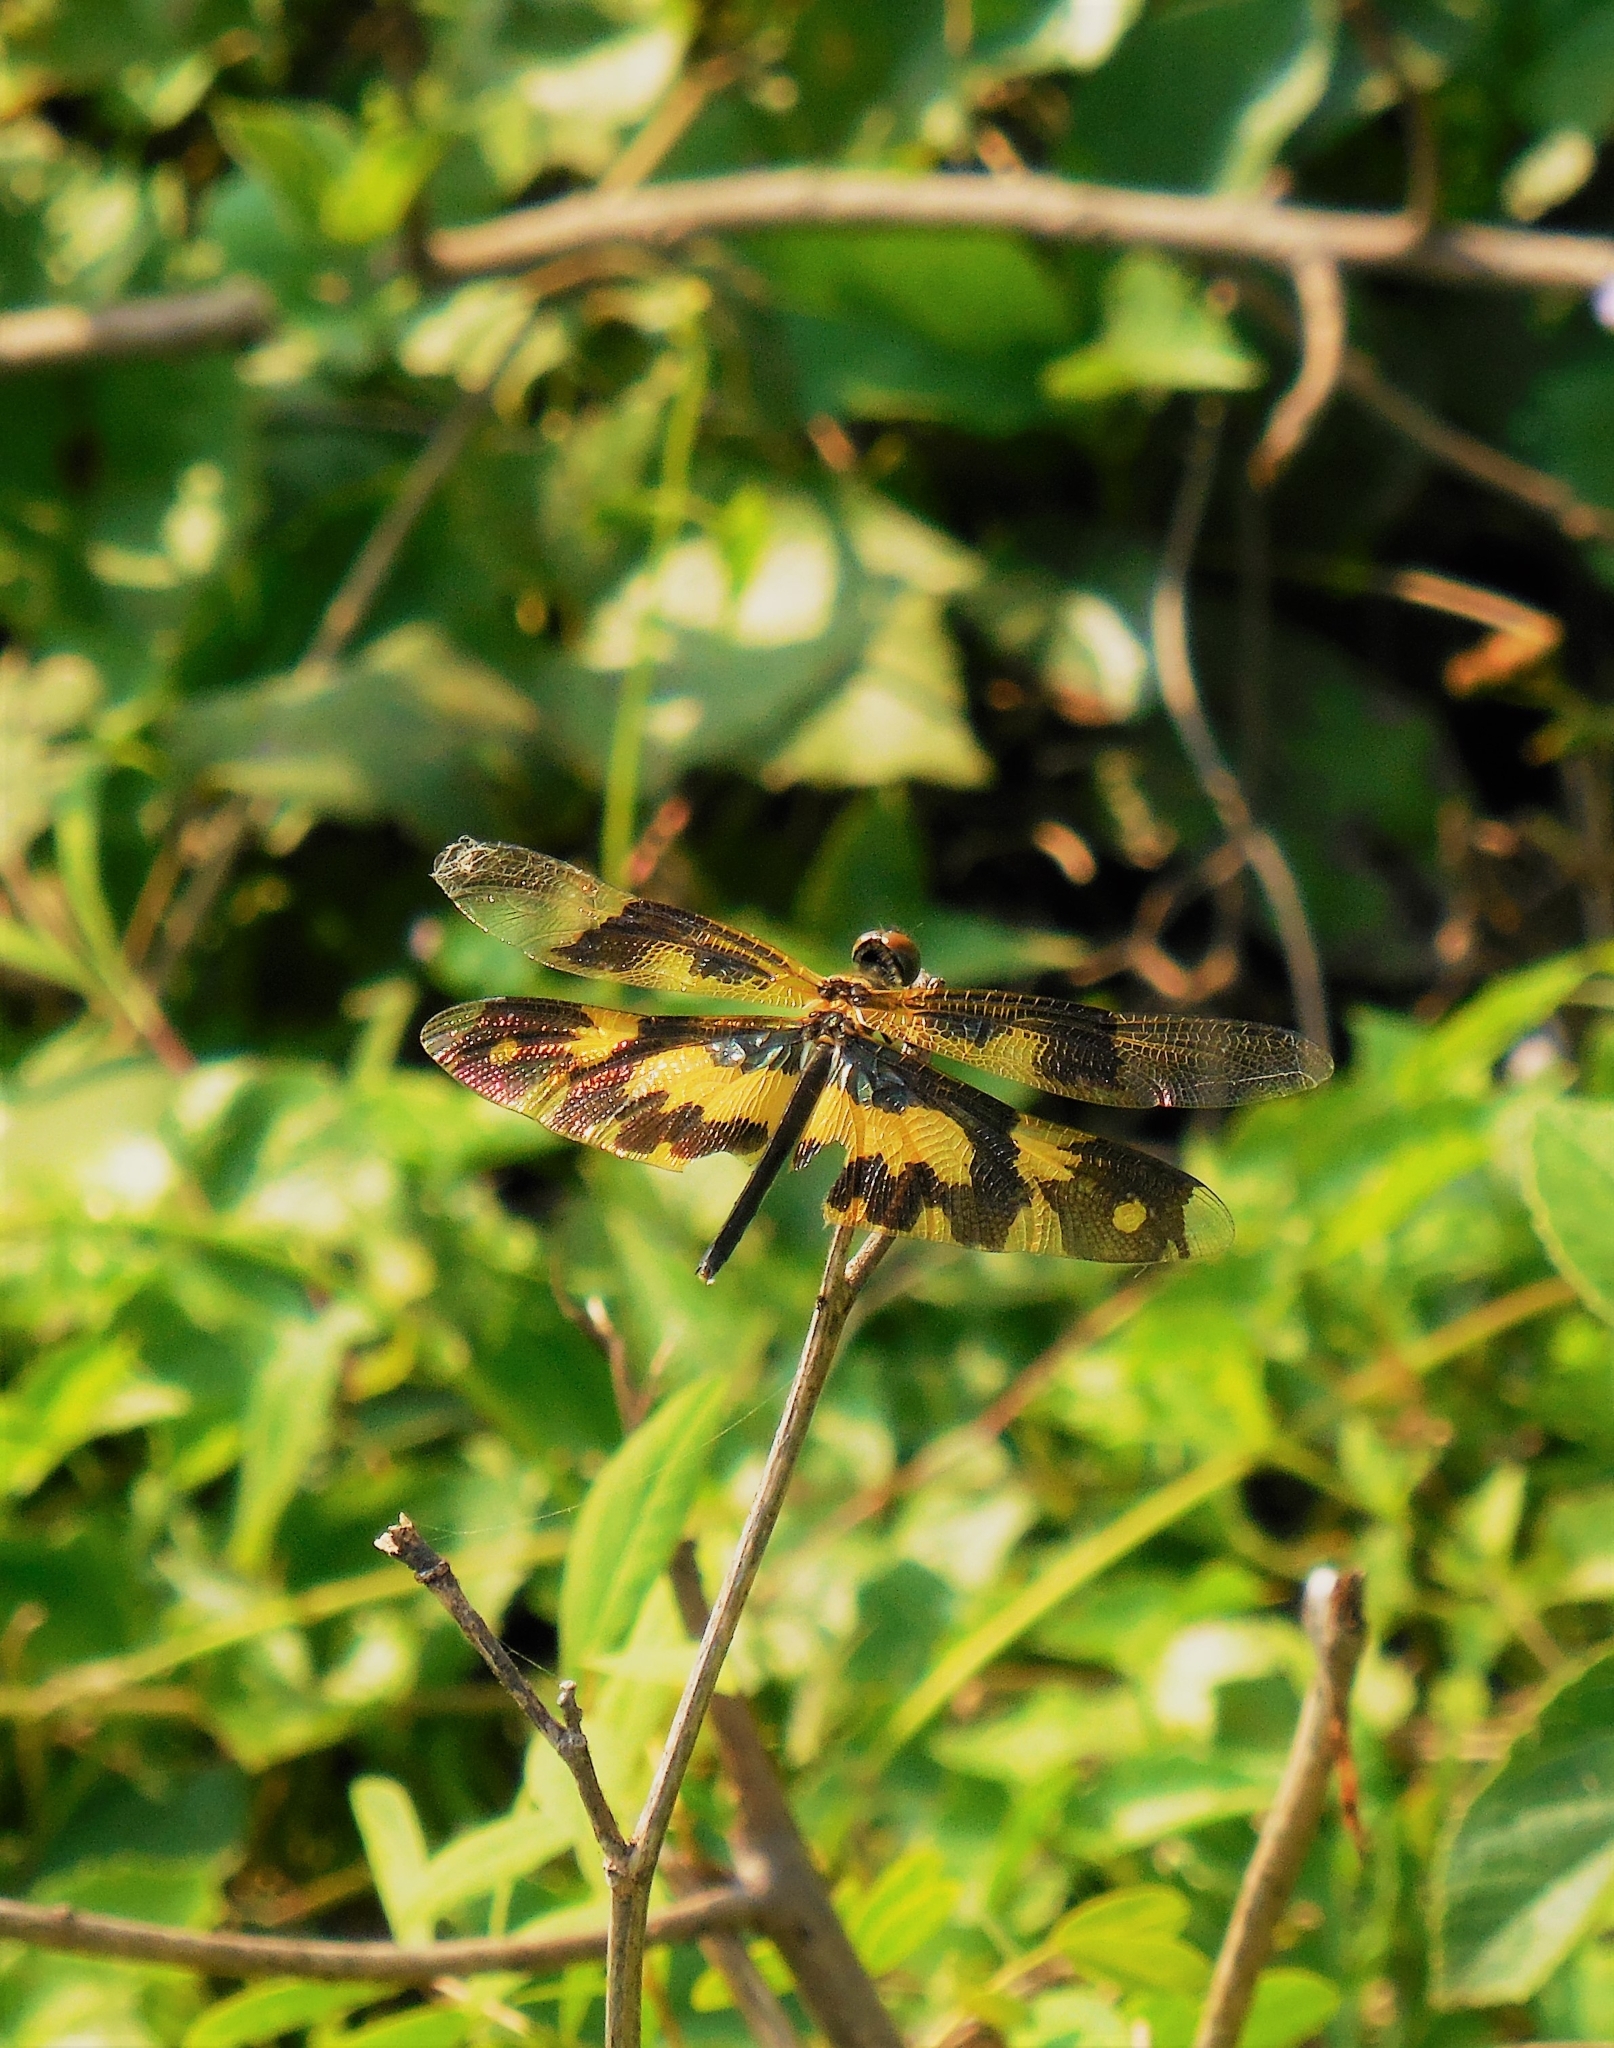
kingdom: Animalia
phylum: Arthropoda
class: Insecta
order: Odonata
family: Libellulidae
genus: Rhyothemis
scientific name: Rhyothemis variegata
